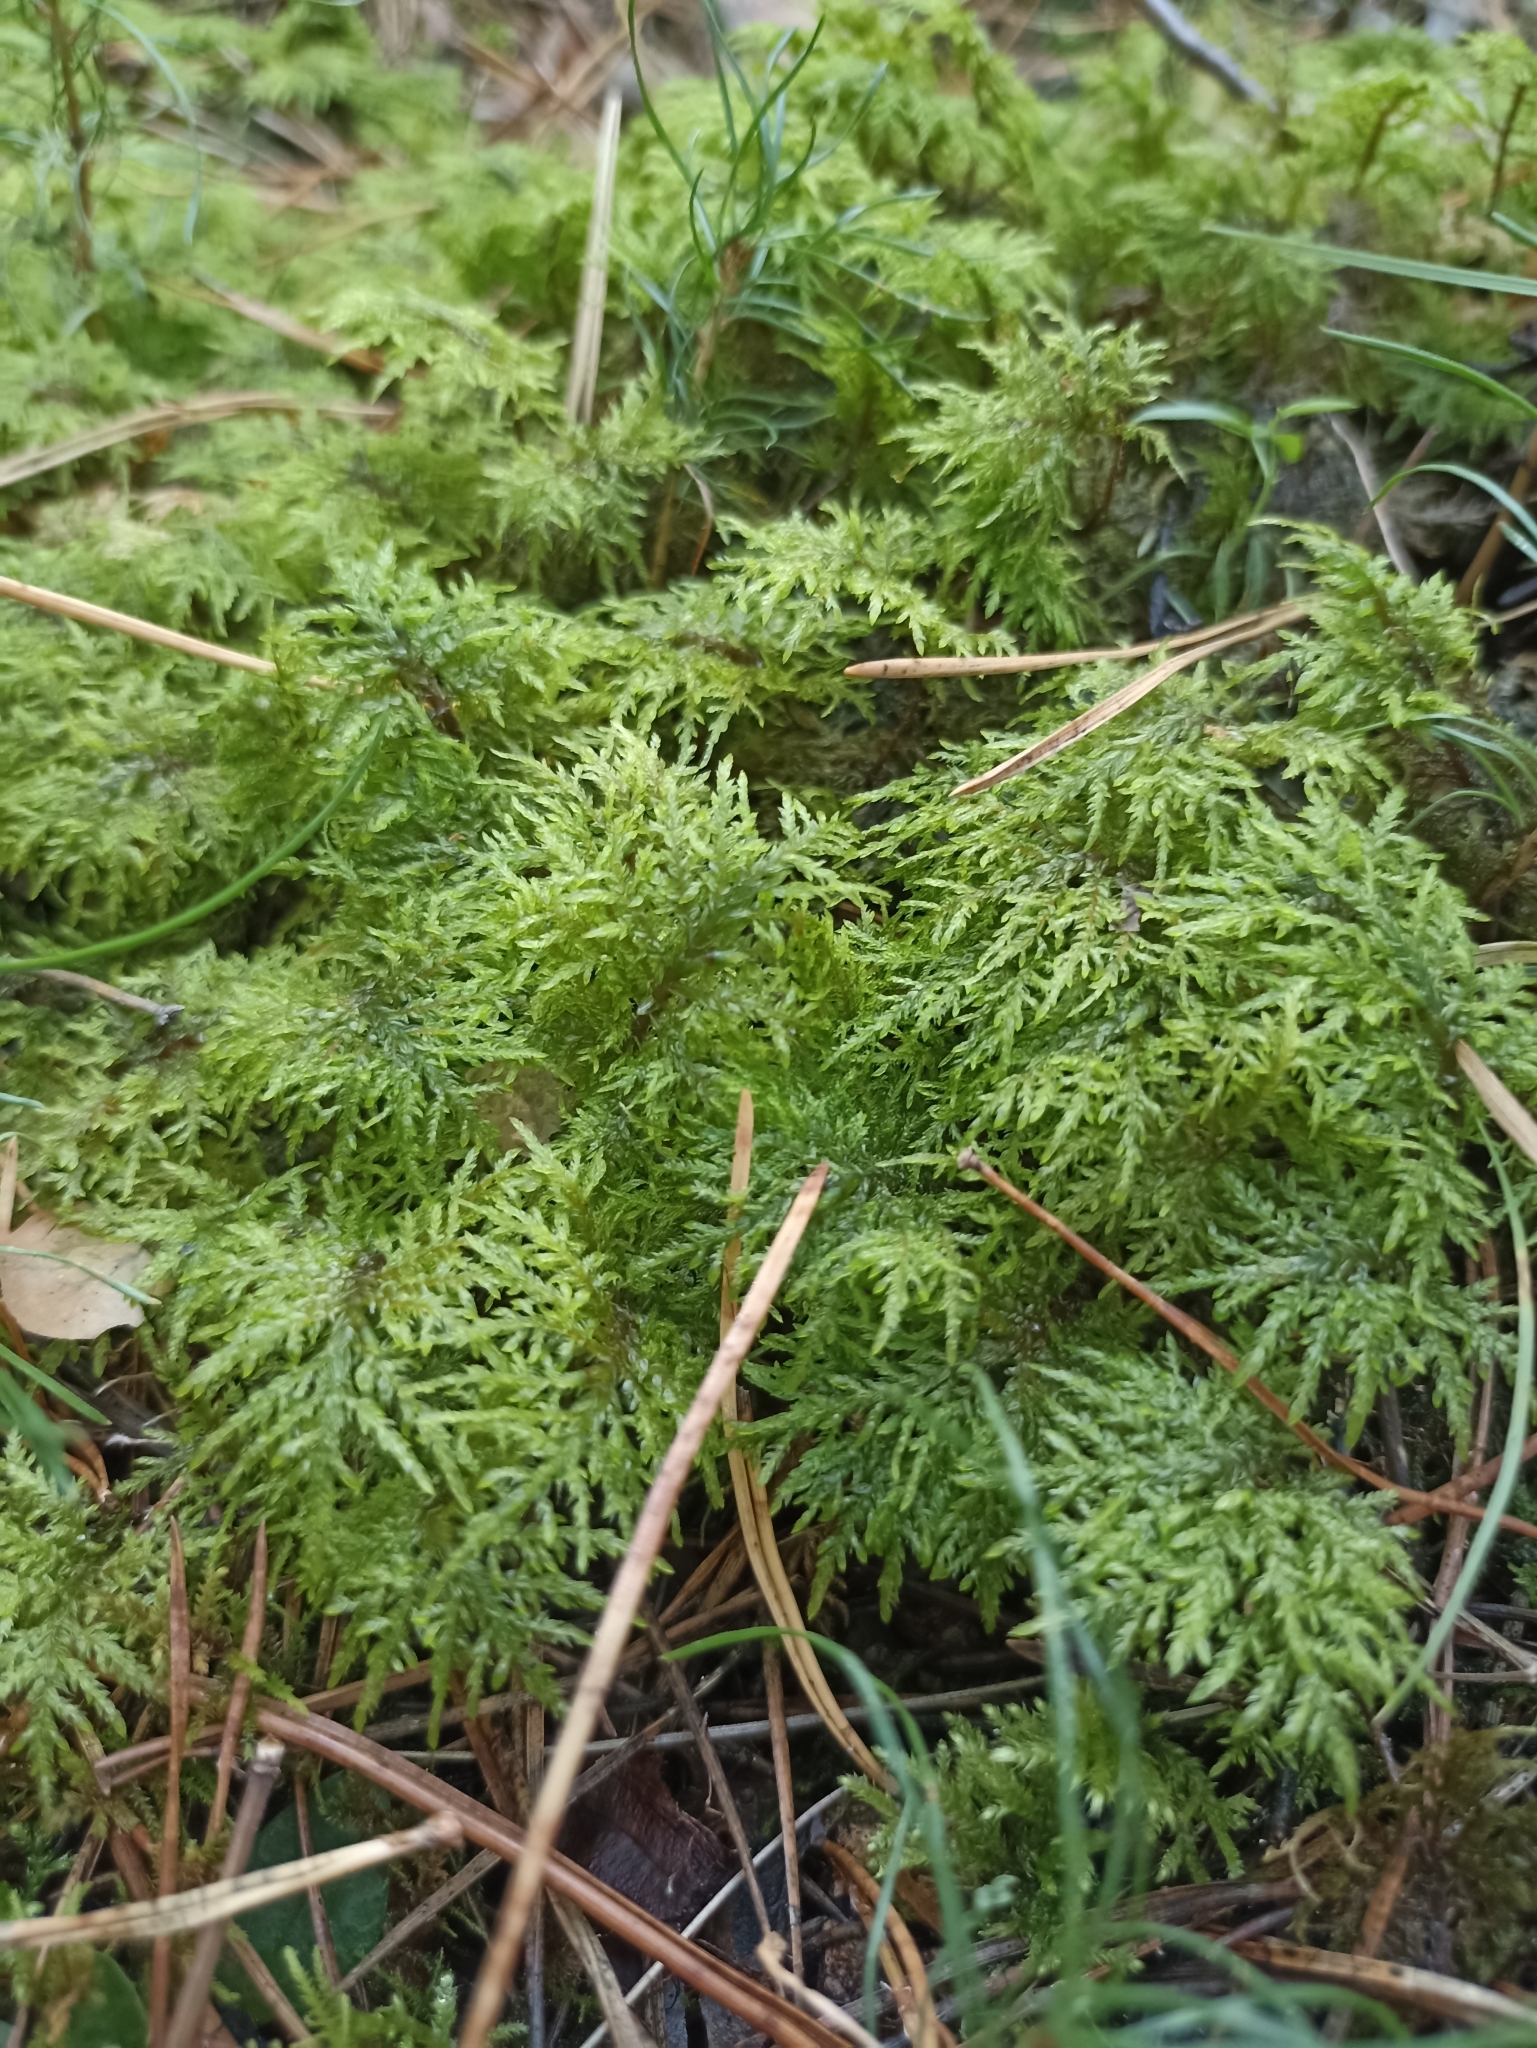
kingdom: Plantae
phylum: Bryophyta
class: Bryopsida
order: Hypnales
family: Hylocomiaceae
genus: Hylocomium
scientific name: Hylocomium splendens
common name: Stairstep moss
